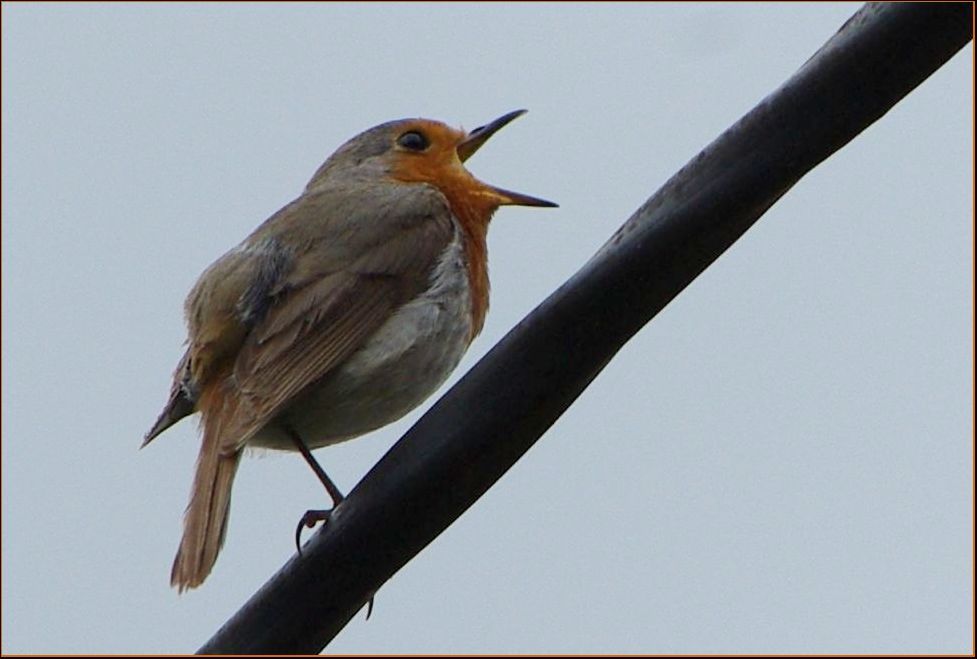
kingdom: Animalia
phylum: Chordata
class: Aves
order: Passeriformes
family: Muscicapidae
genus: Erithacus
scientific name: Erithacus rubecula
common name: European robin
